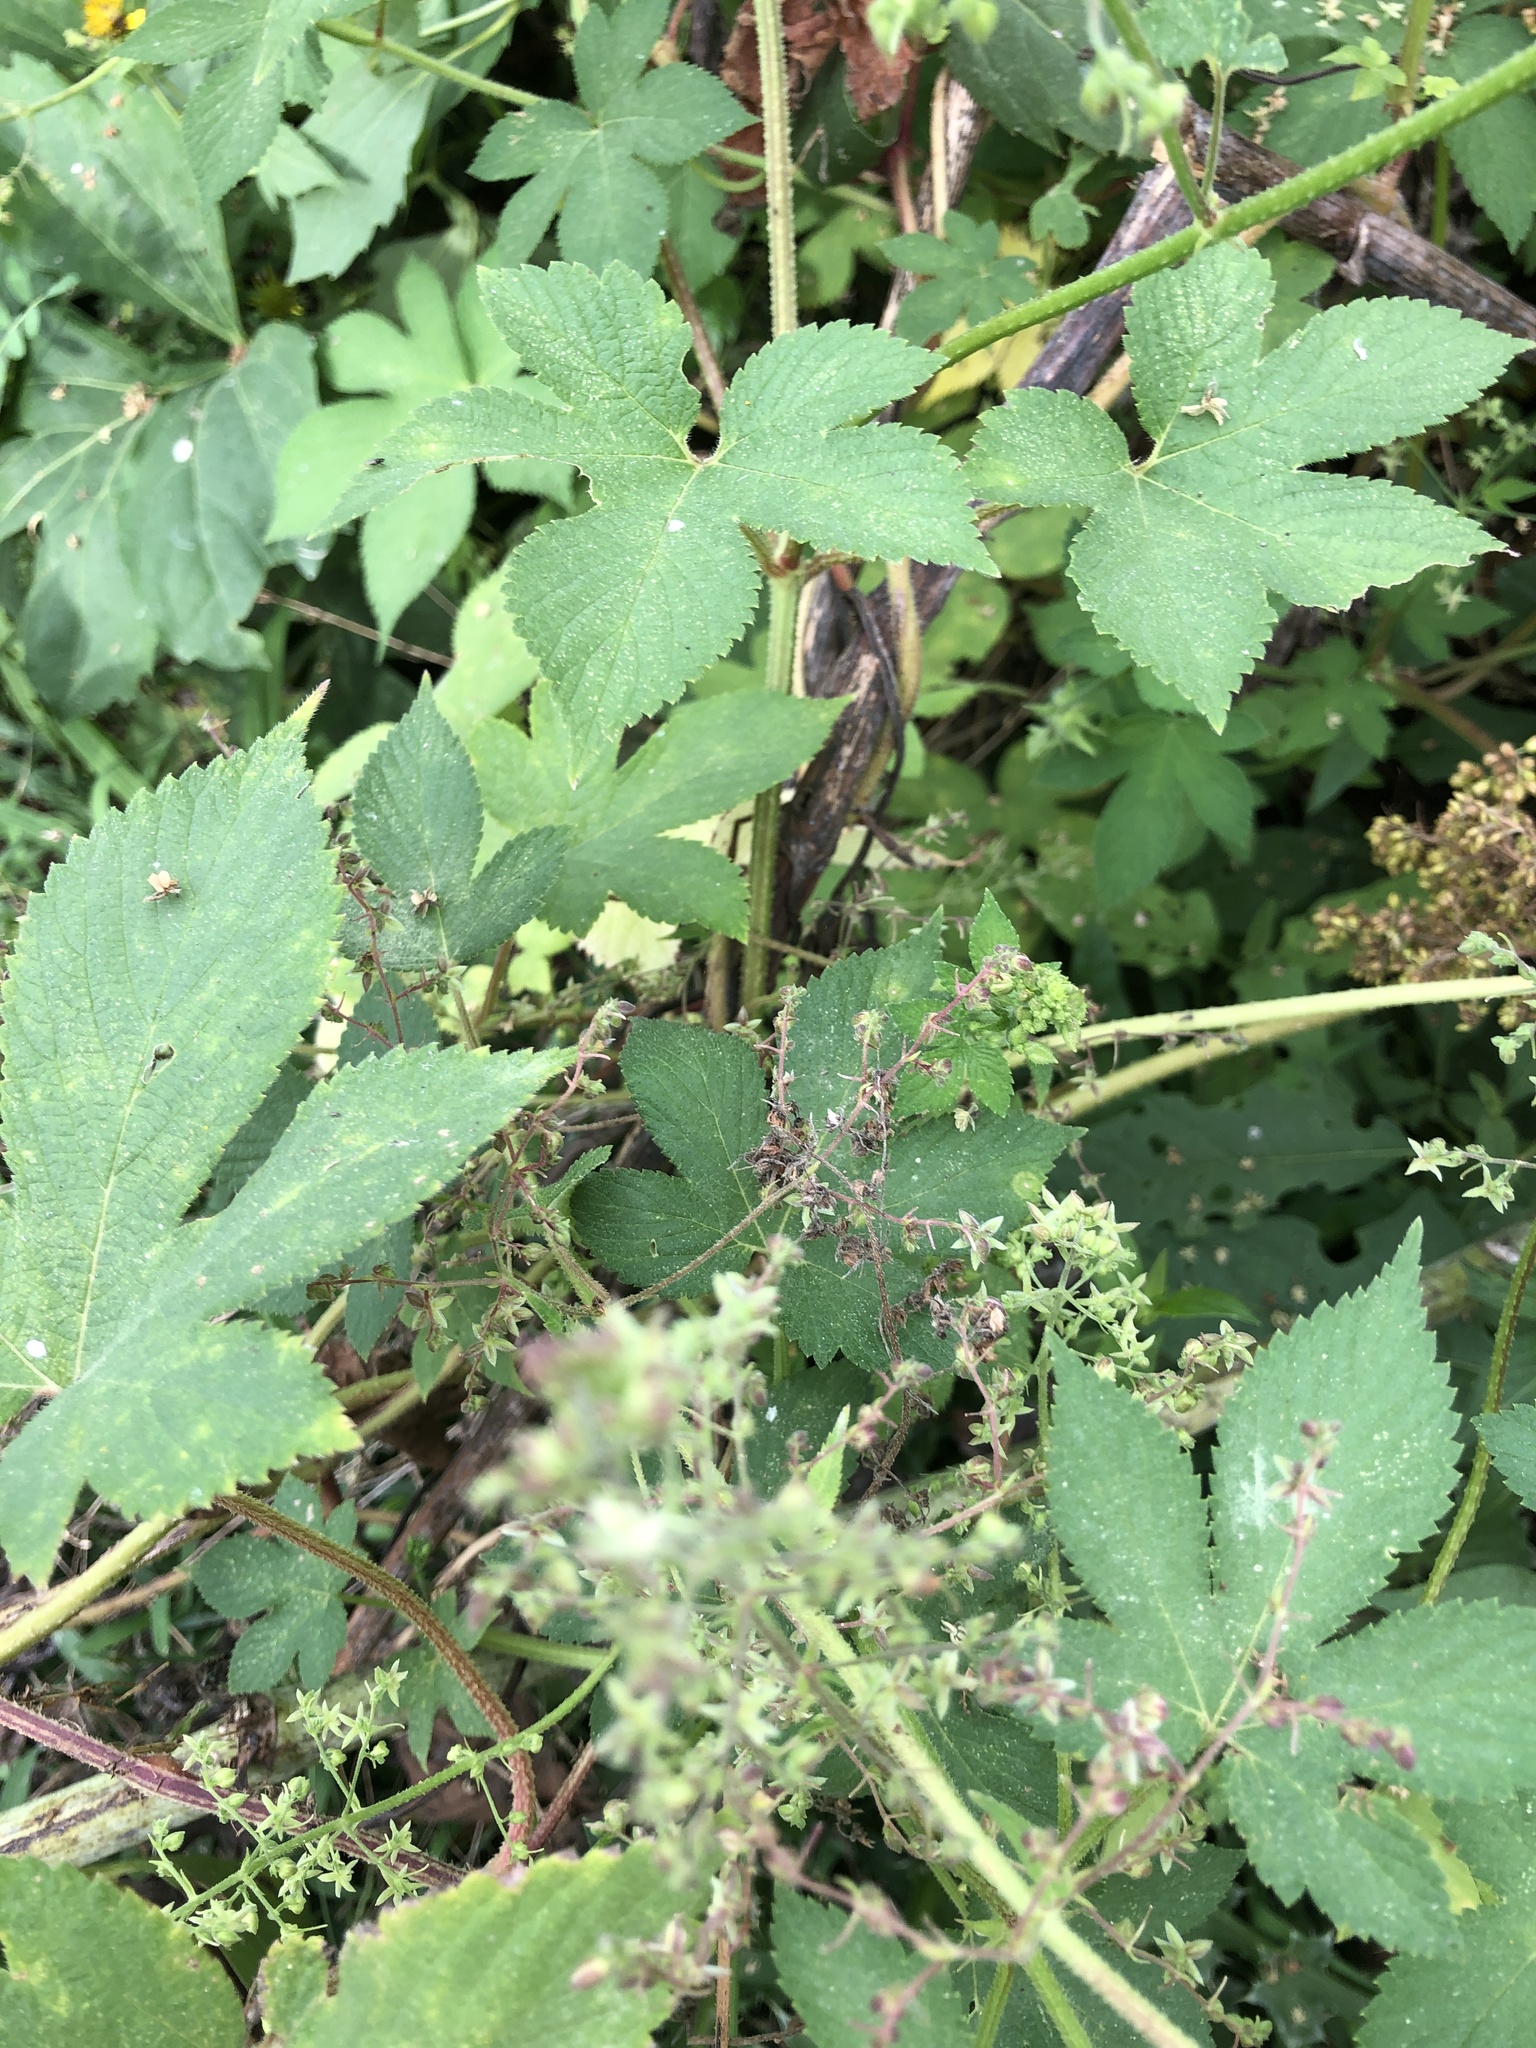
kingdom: Plantae
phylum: Tracheophyta
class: Magnoliopsida
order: Rosales
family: Cannabaceae
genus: Humulus
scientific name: Humulus scandens
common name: Japanese hop
